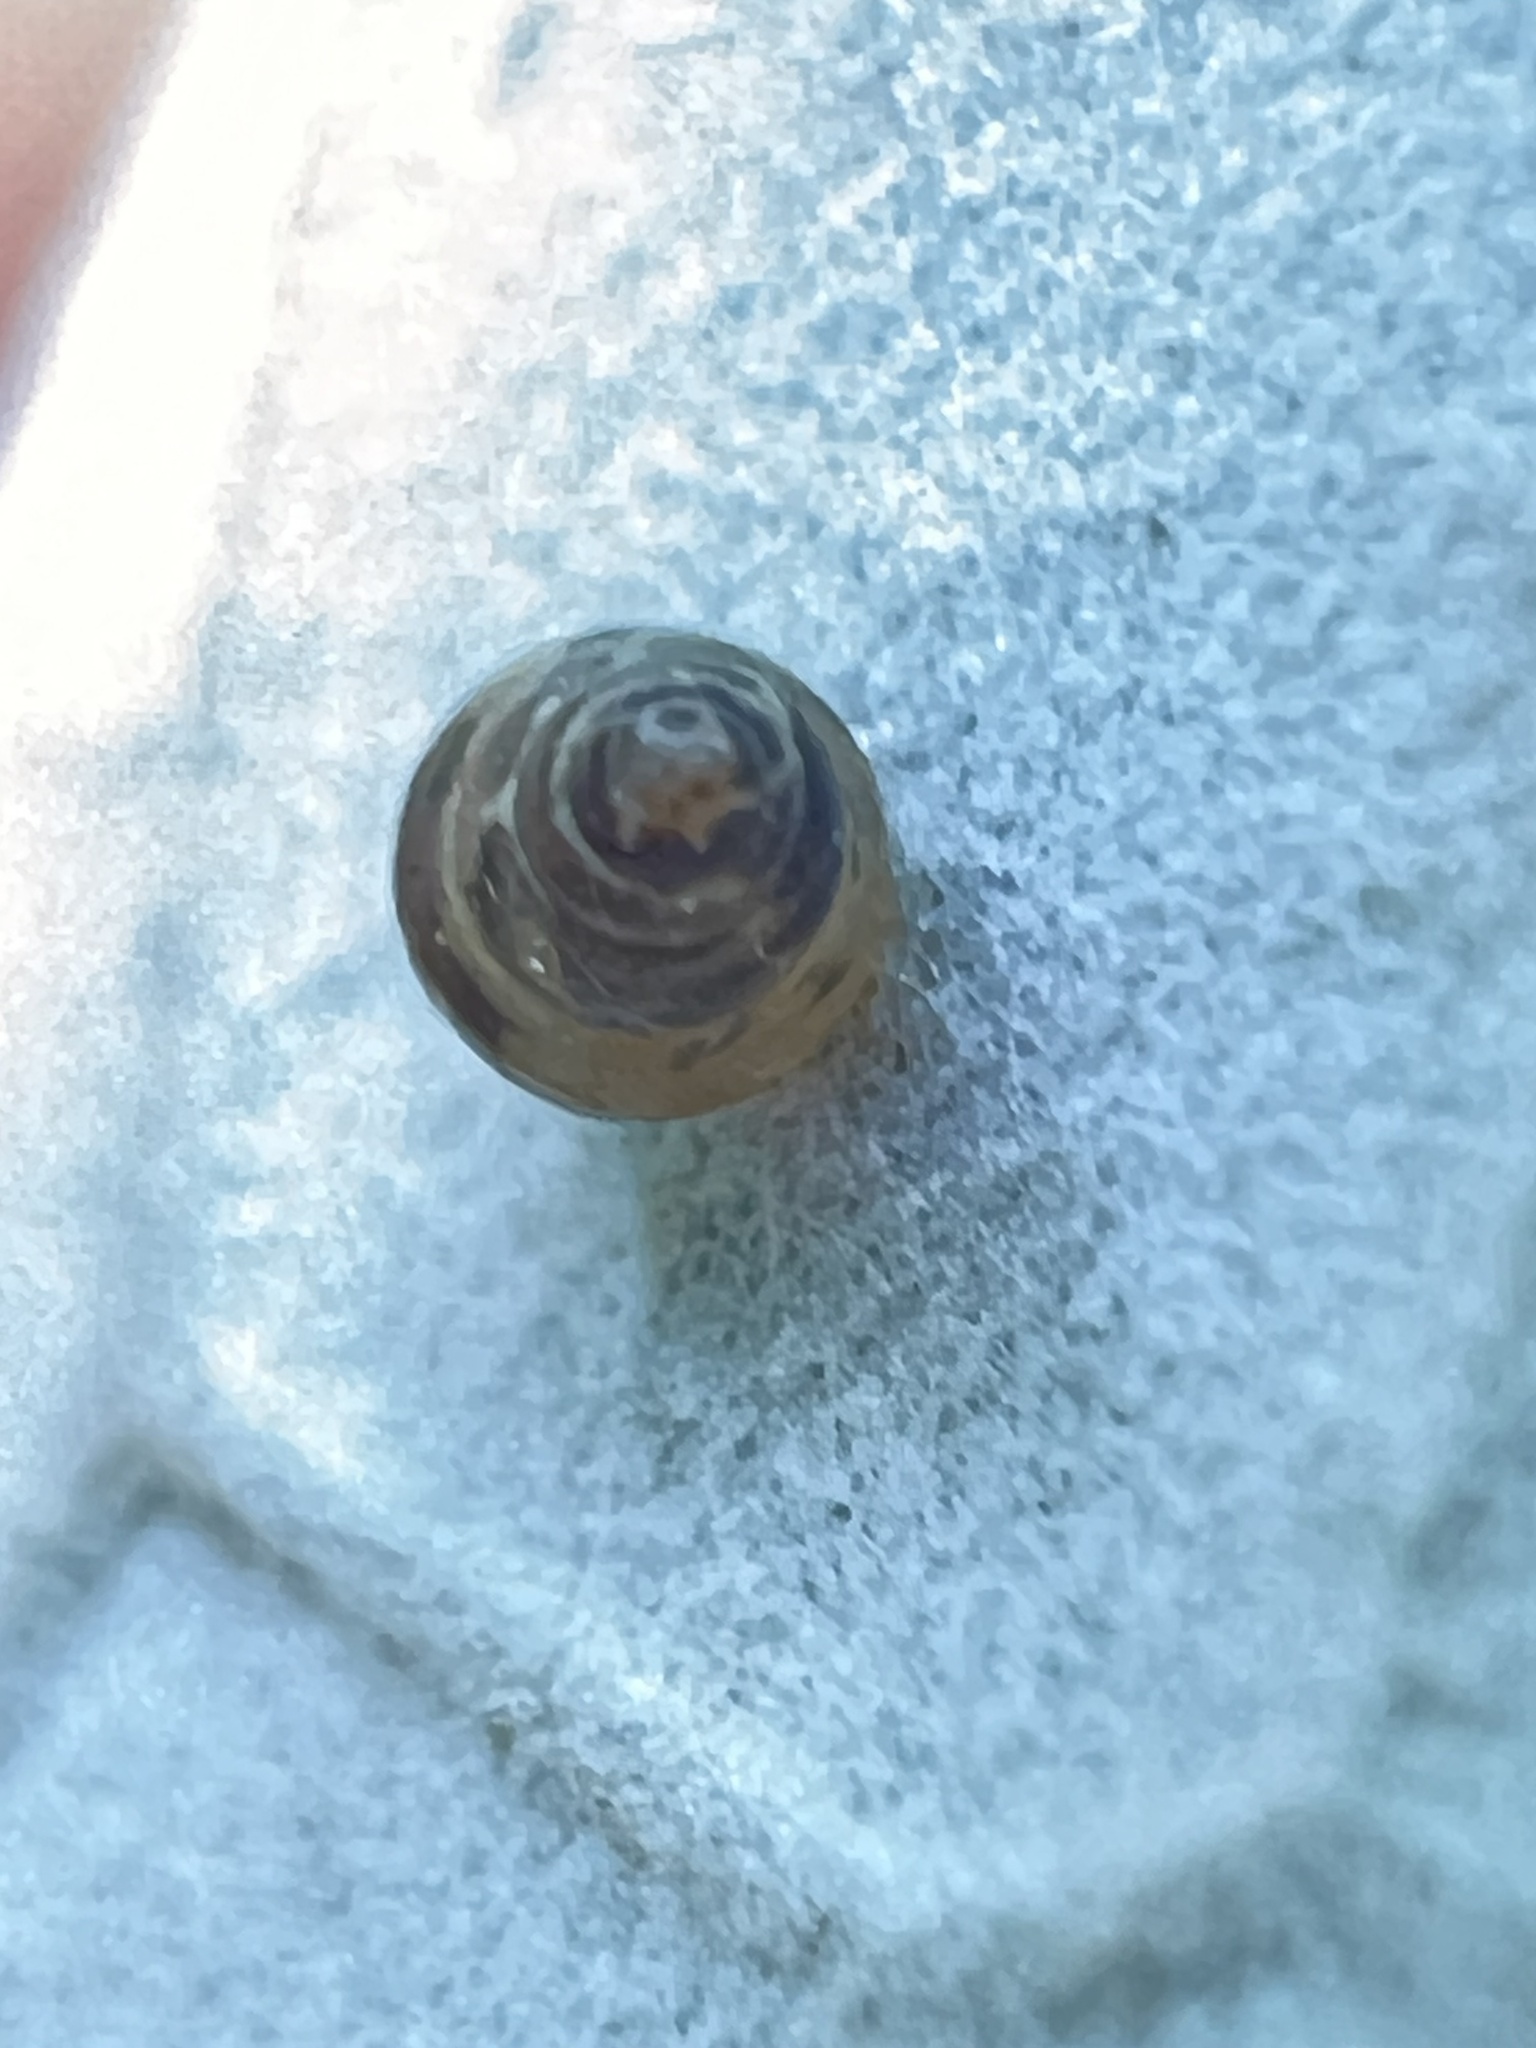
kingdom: Animalia
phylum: Mollusca
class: Gastropoda
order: Stylommatophora
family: Achatinellidae
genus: Tornatellides
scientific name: Tornatellides subperforatus
